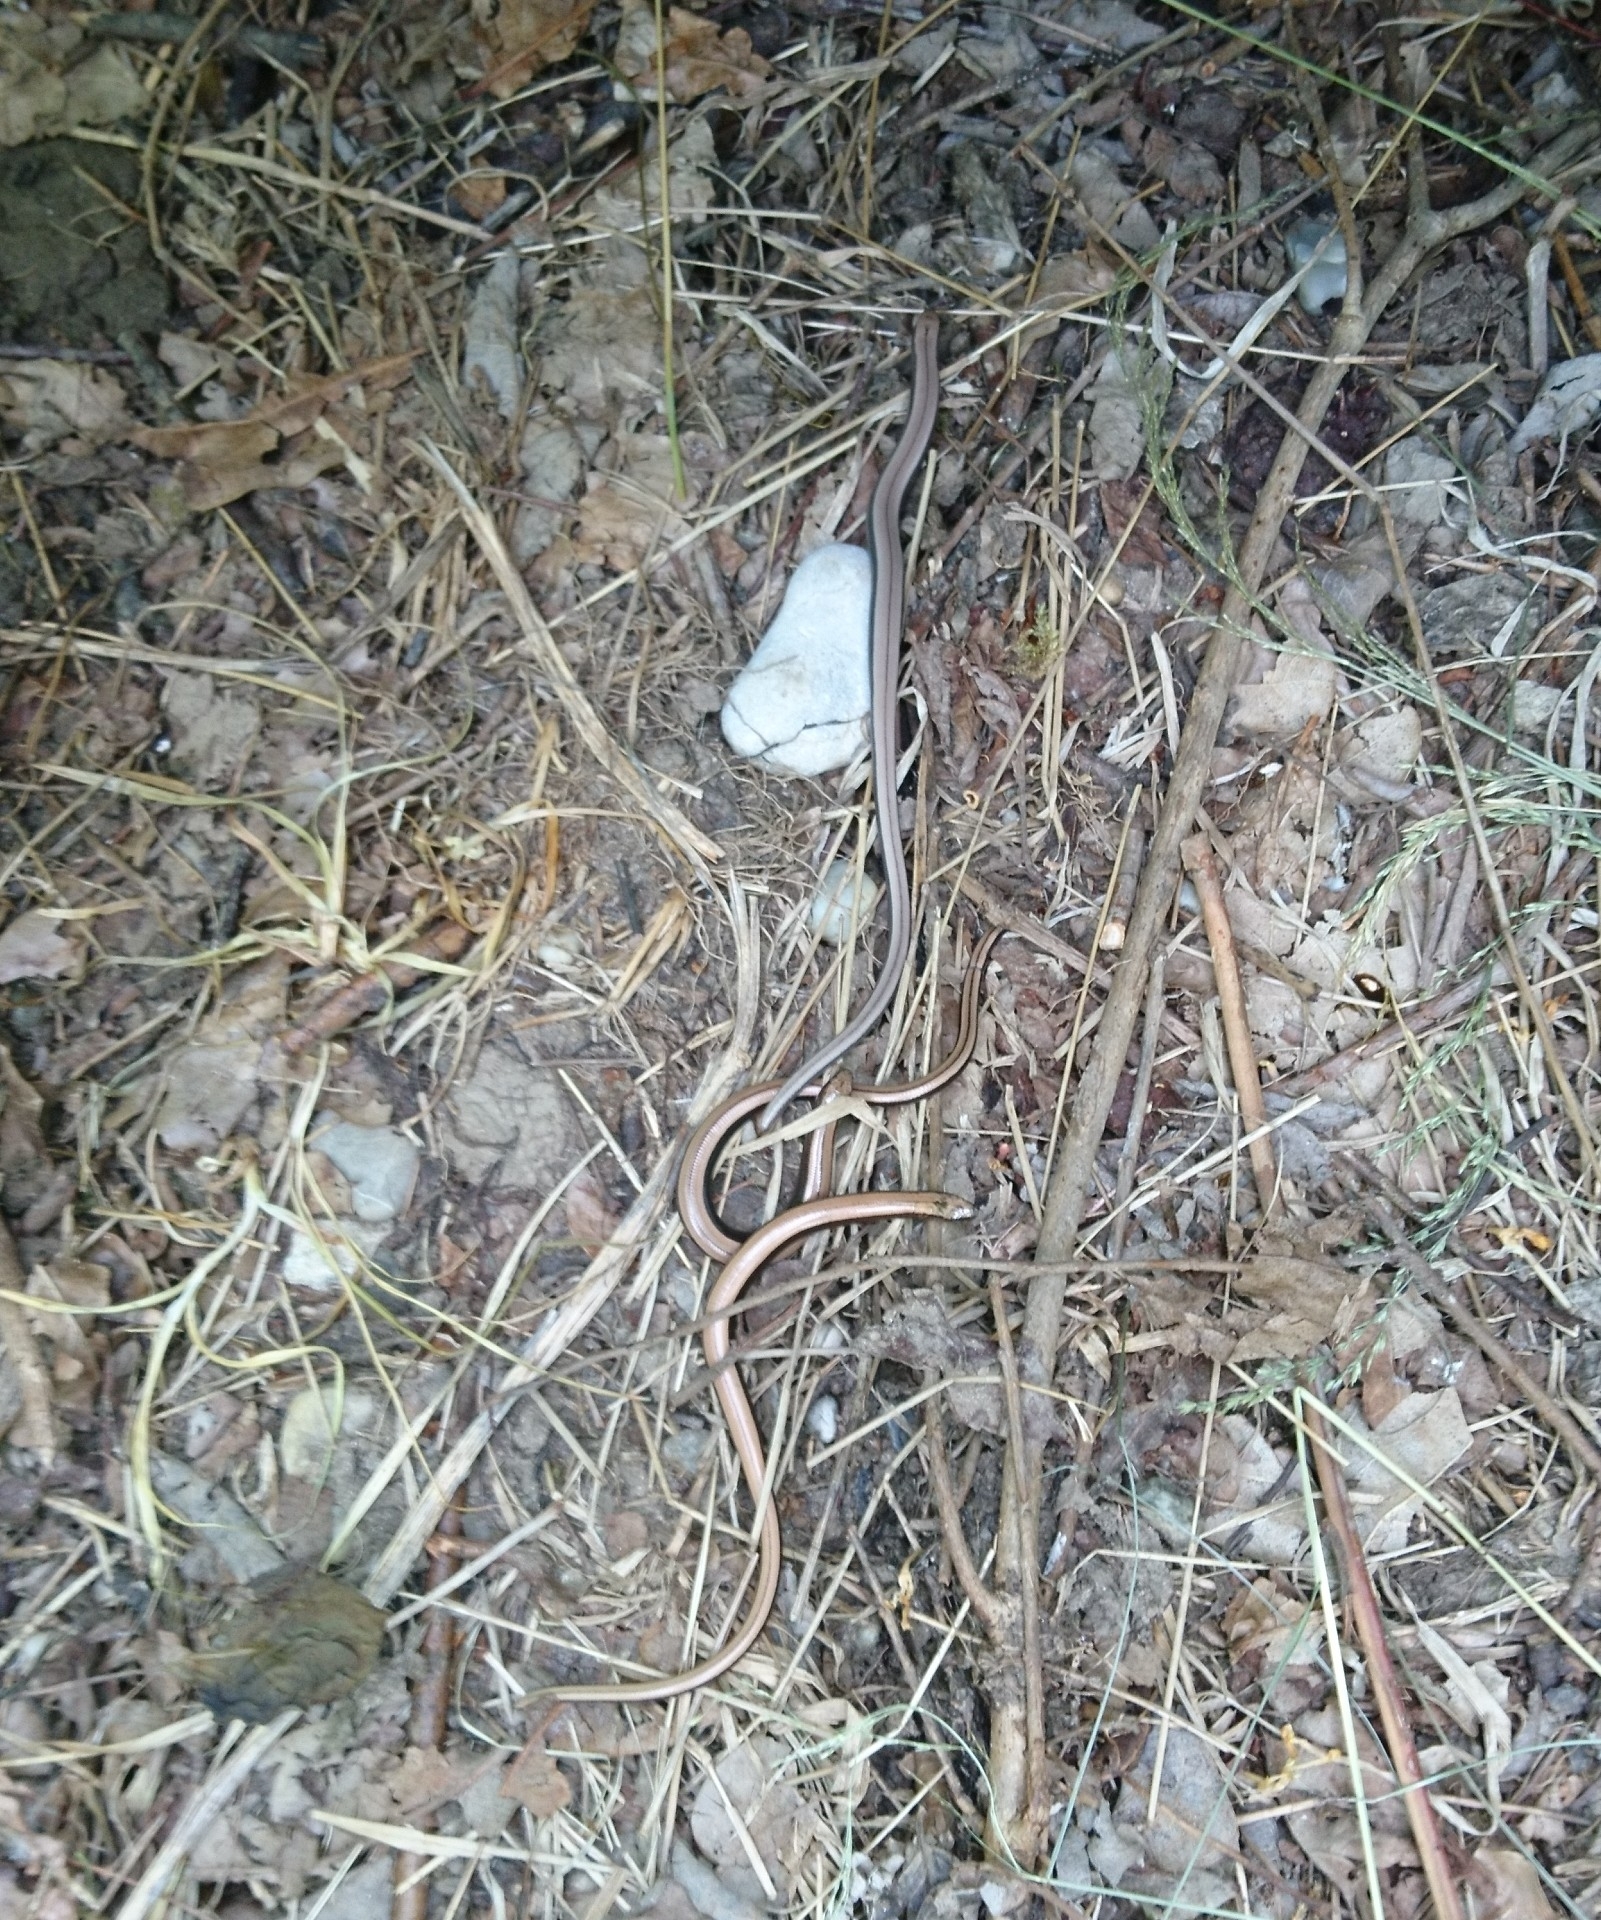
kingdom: Animalia
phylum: Chordata
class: Squamata
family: Anguidae
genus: Anguis
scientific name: Anguis fragilis
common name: Slow worm
